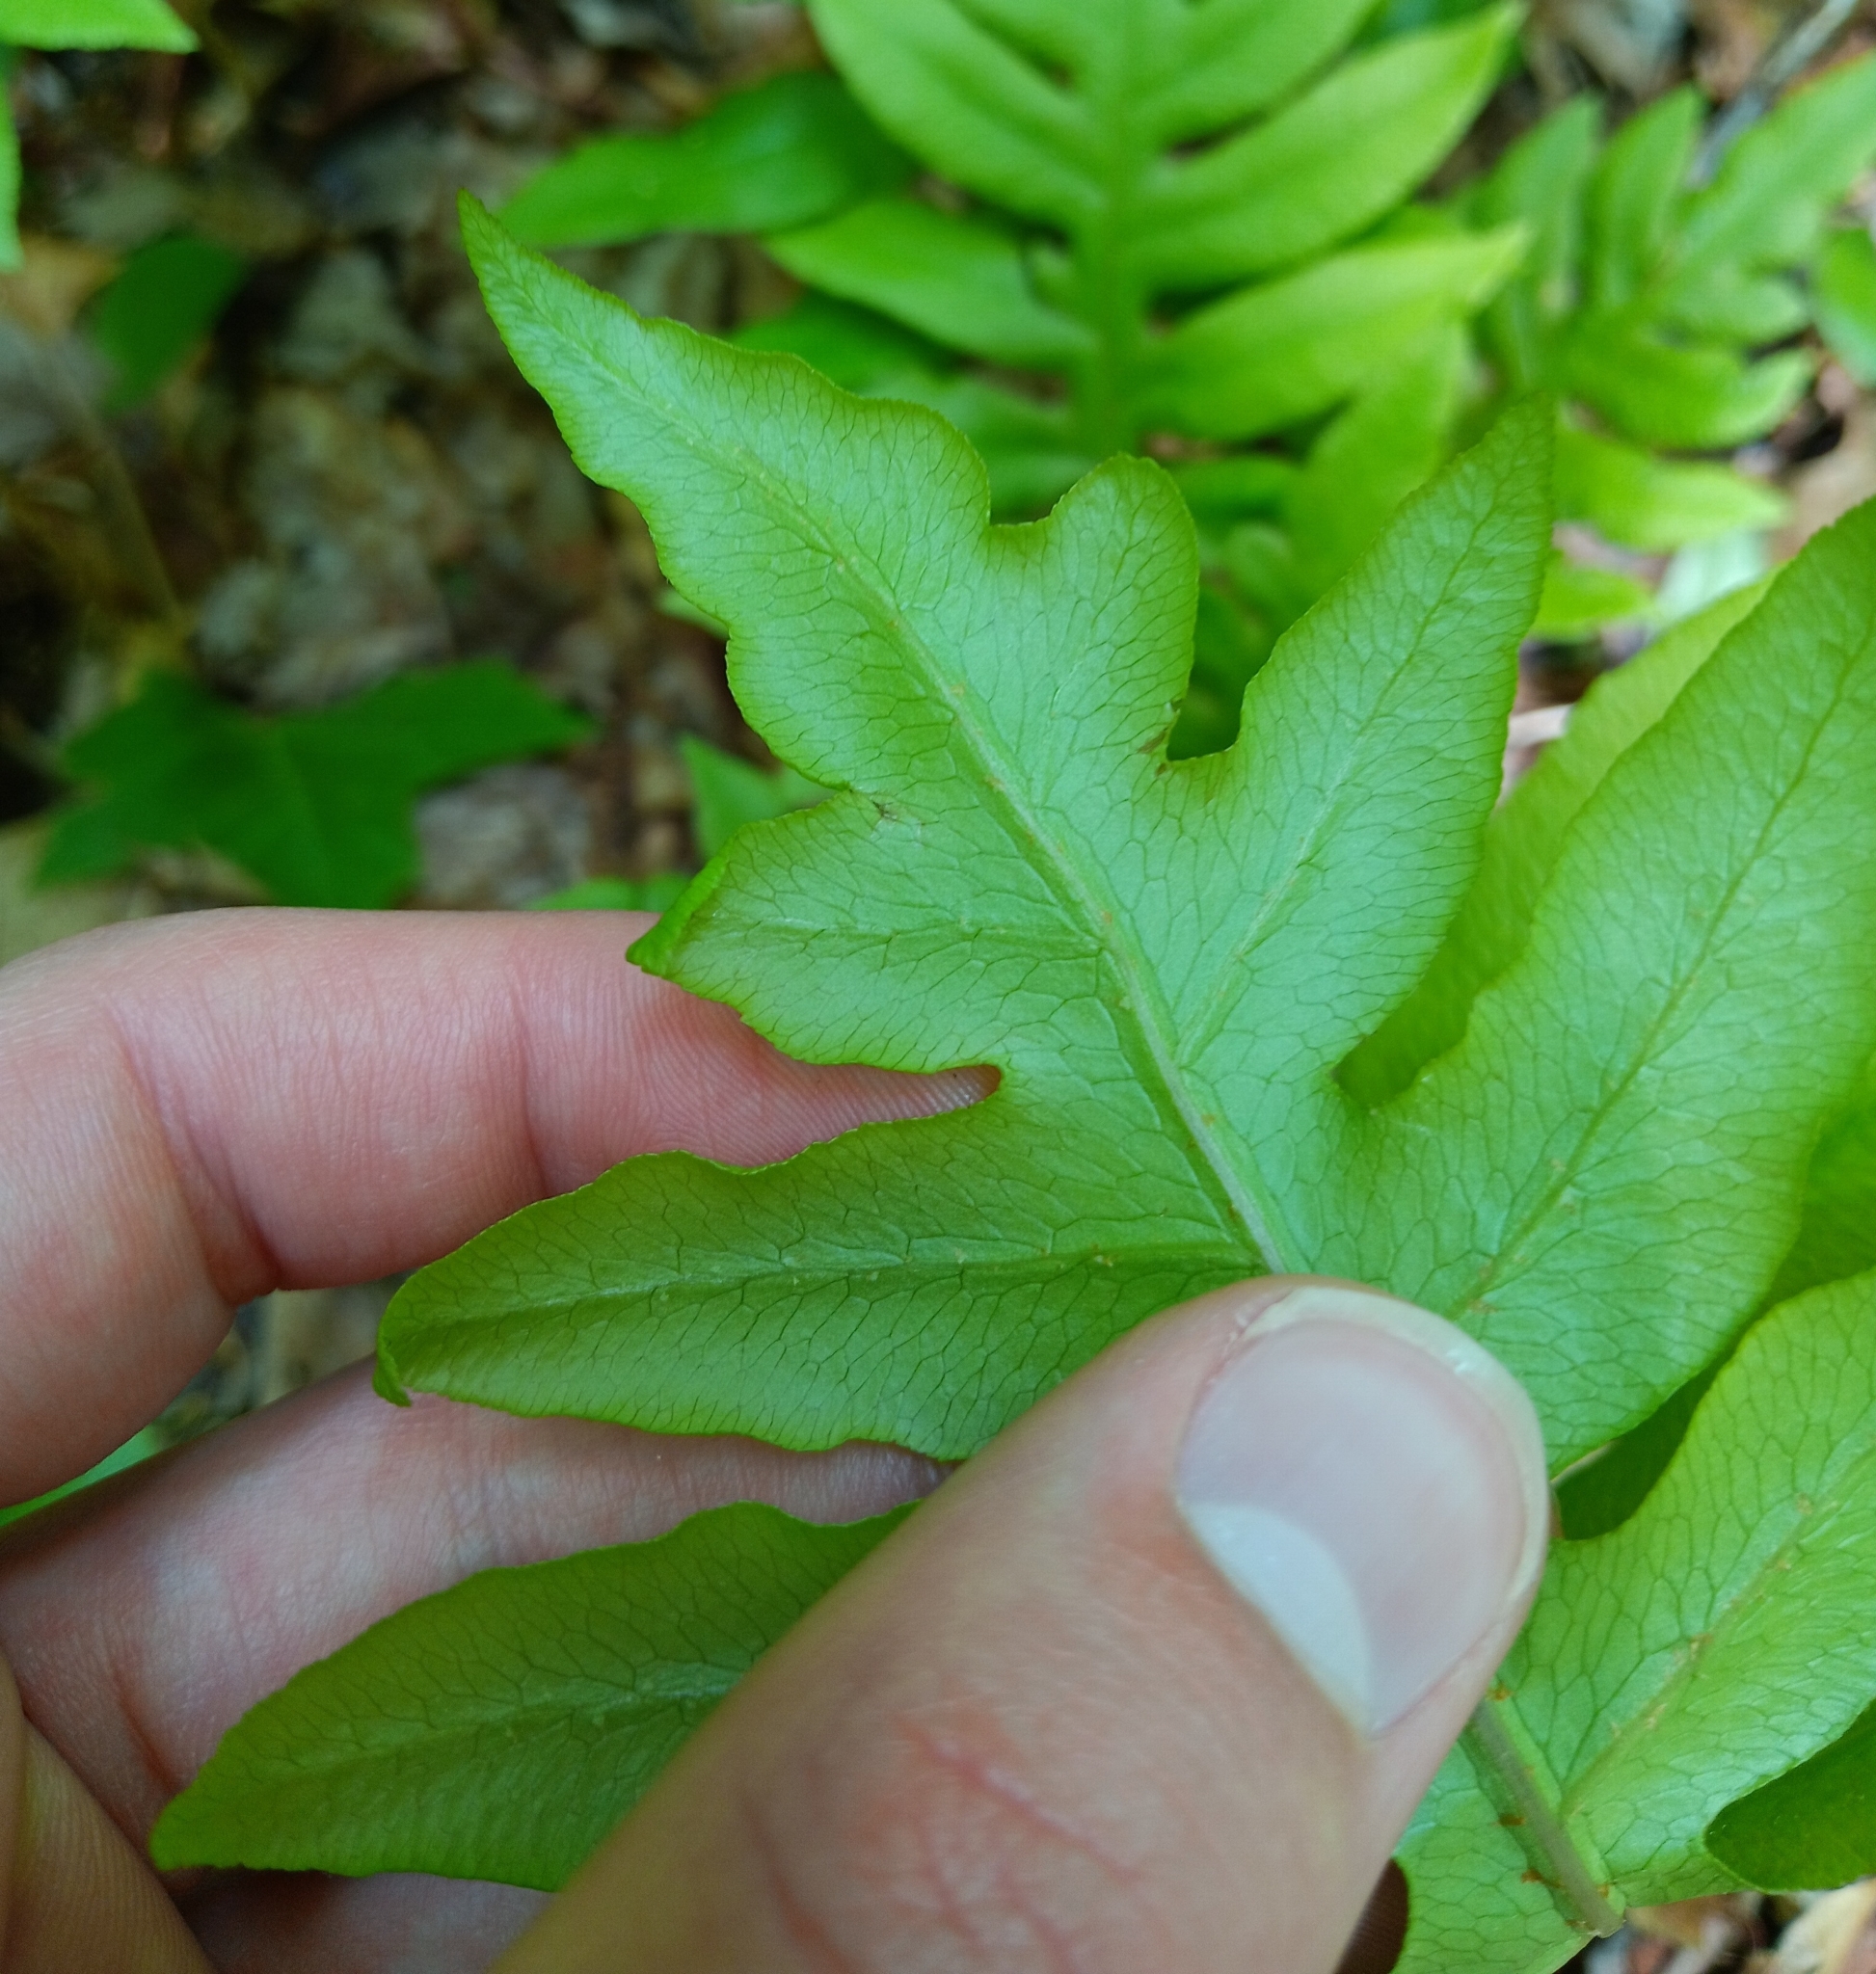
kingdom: Plantae
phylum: Tracheophyta
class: Polypodiopsida
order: Polypodiales
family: Blechnaceae
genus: Lorinseria
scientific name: Lorinseria areolata
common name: Dwarf chain fern
